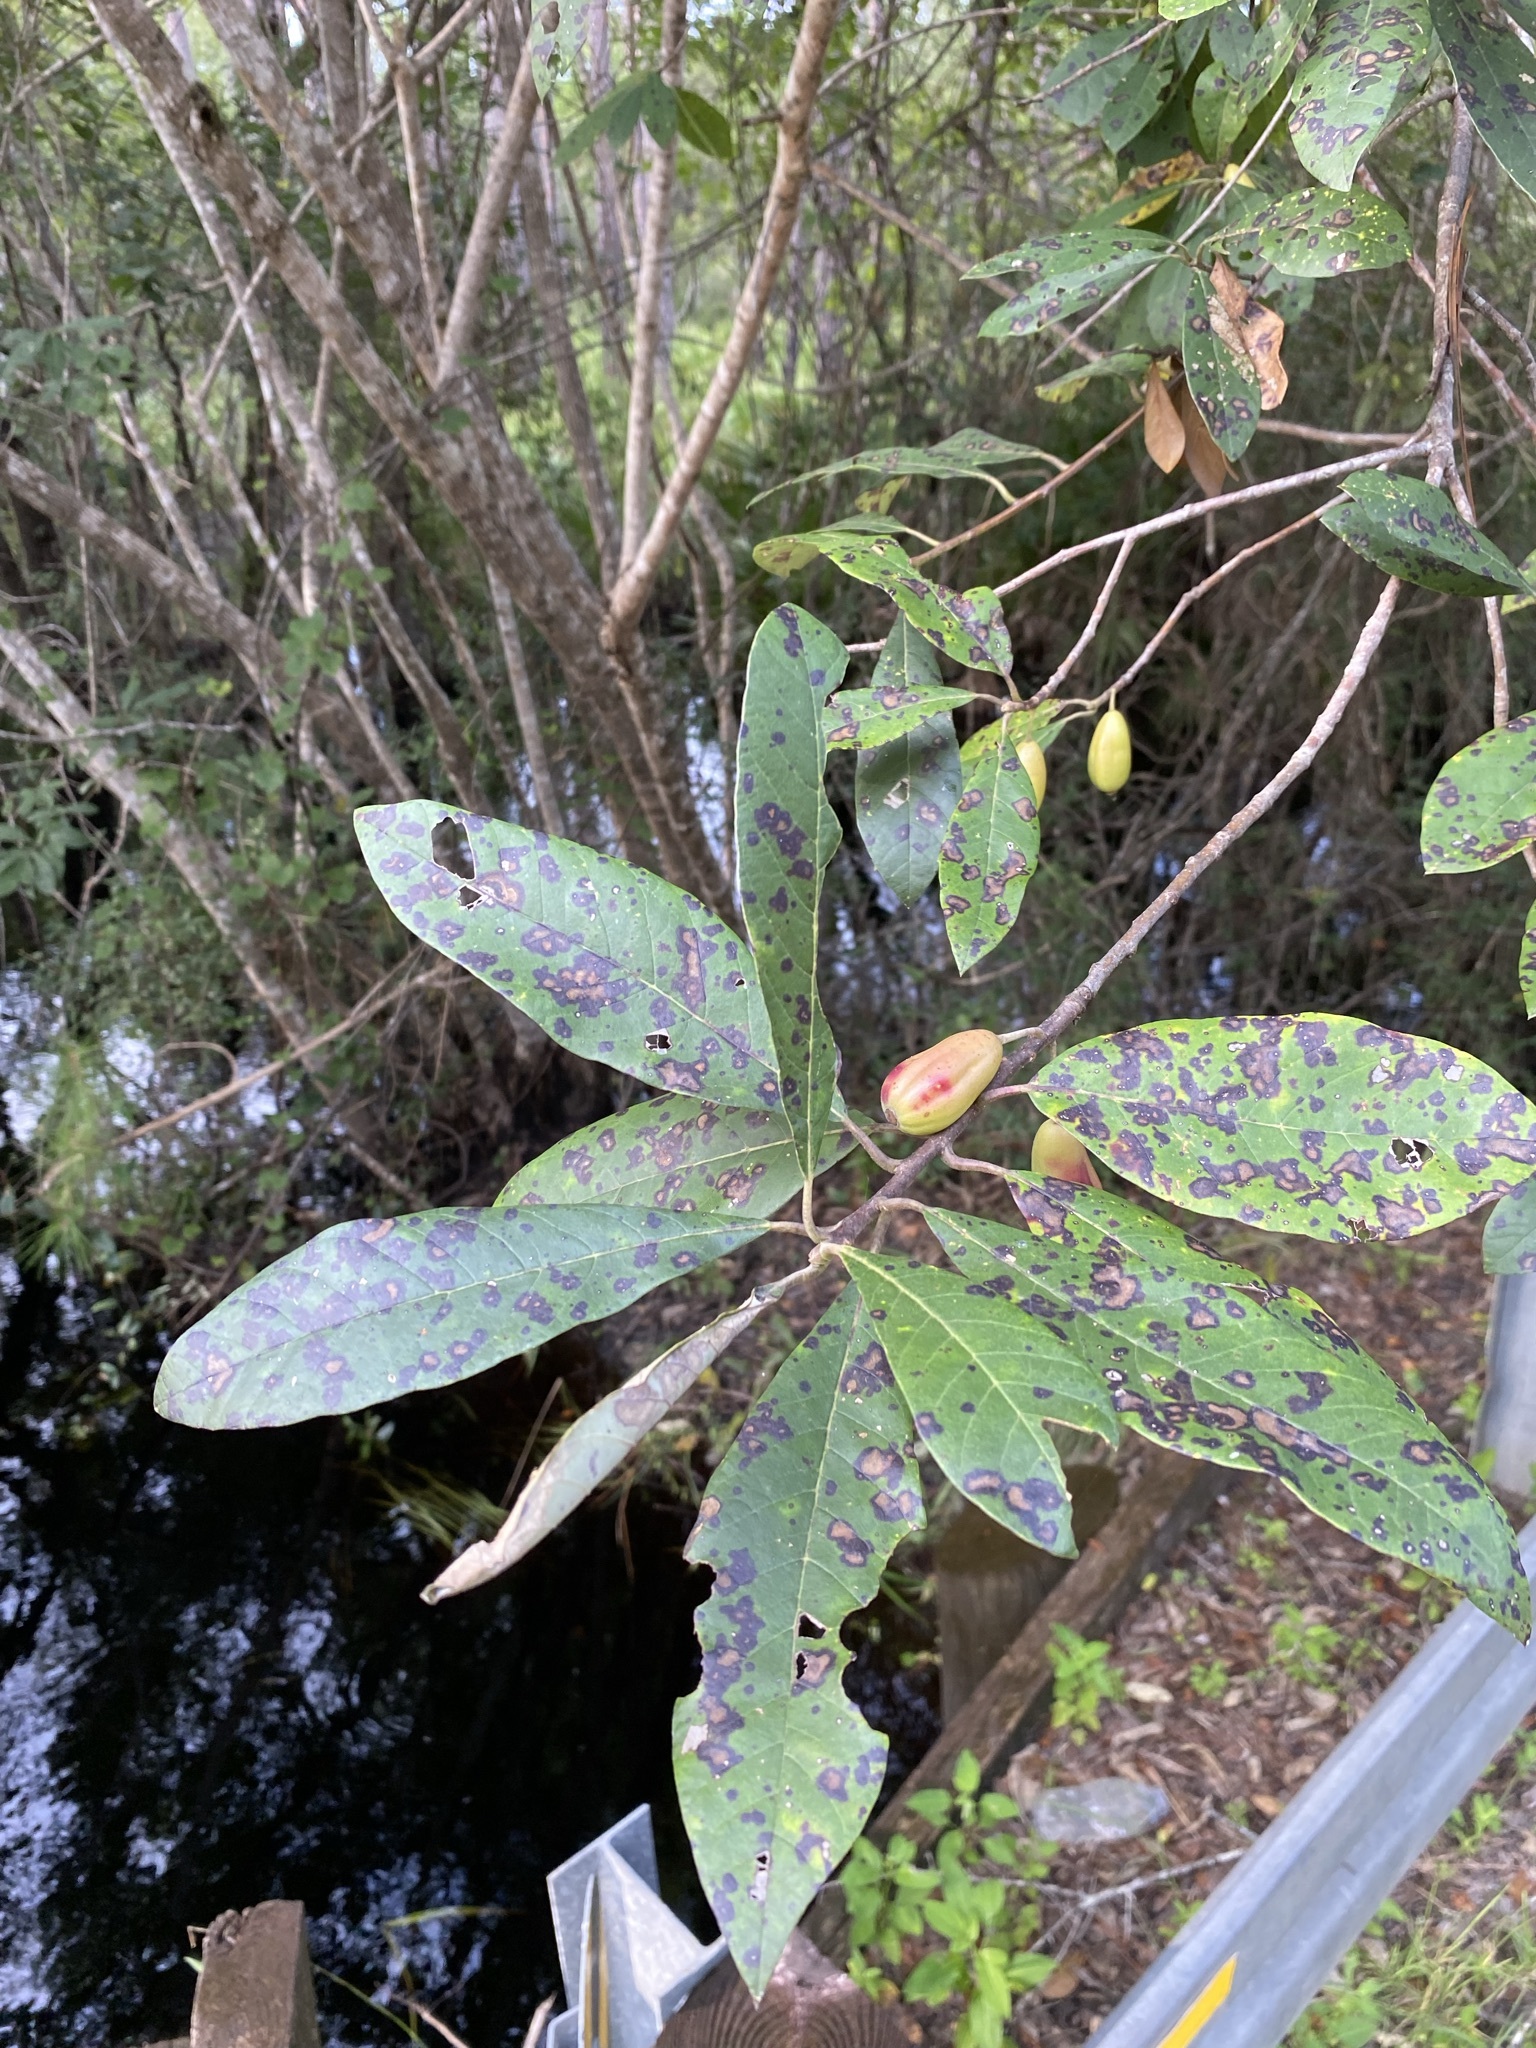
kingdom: Plantae
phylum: Tracheophyta
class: Magnoliopsida
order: Cornales
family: Nyssaceae
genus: Nyssa
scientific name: Nyssa ogeche
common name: Ogeechee tupelo
